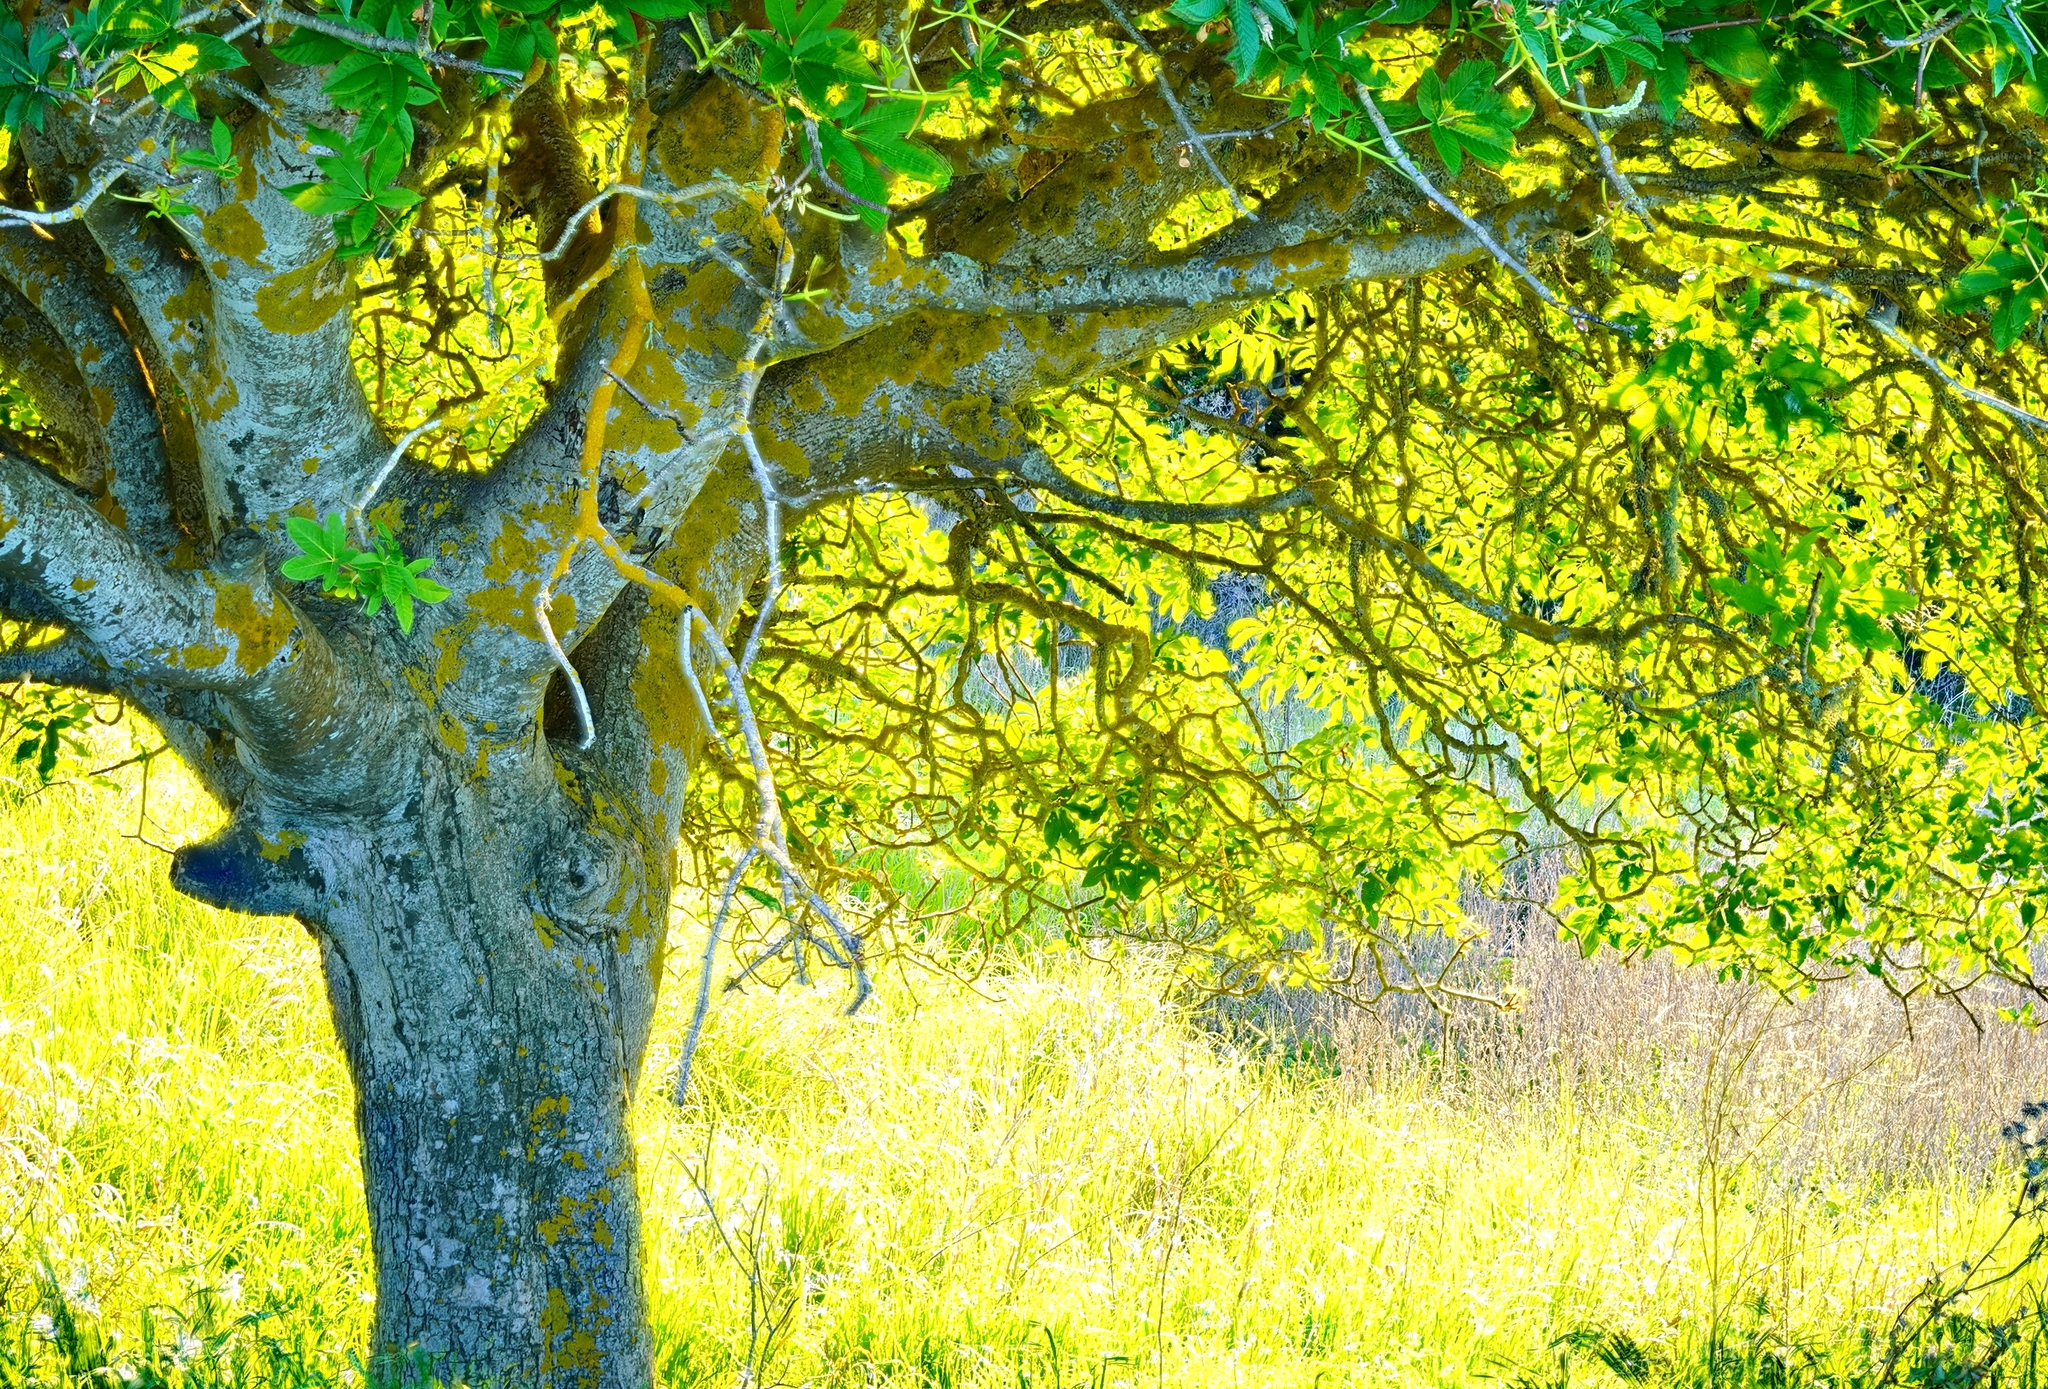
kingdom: Plantae
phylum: Tracheophyta
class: Magnoliopsida
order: Sapindales
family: Sapindaceae
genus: Aesculus
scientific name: Aesculus californica
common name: California buckeye
